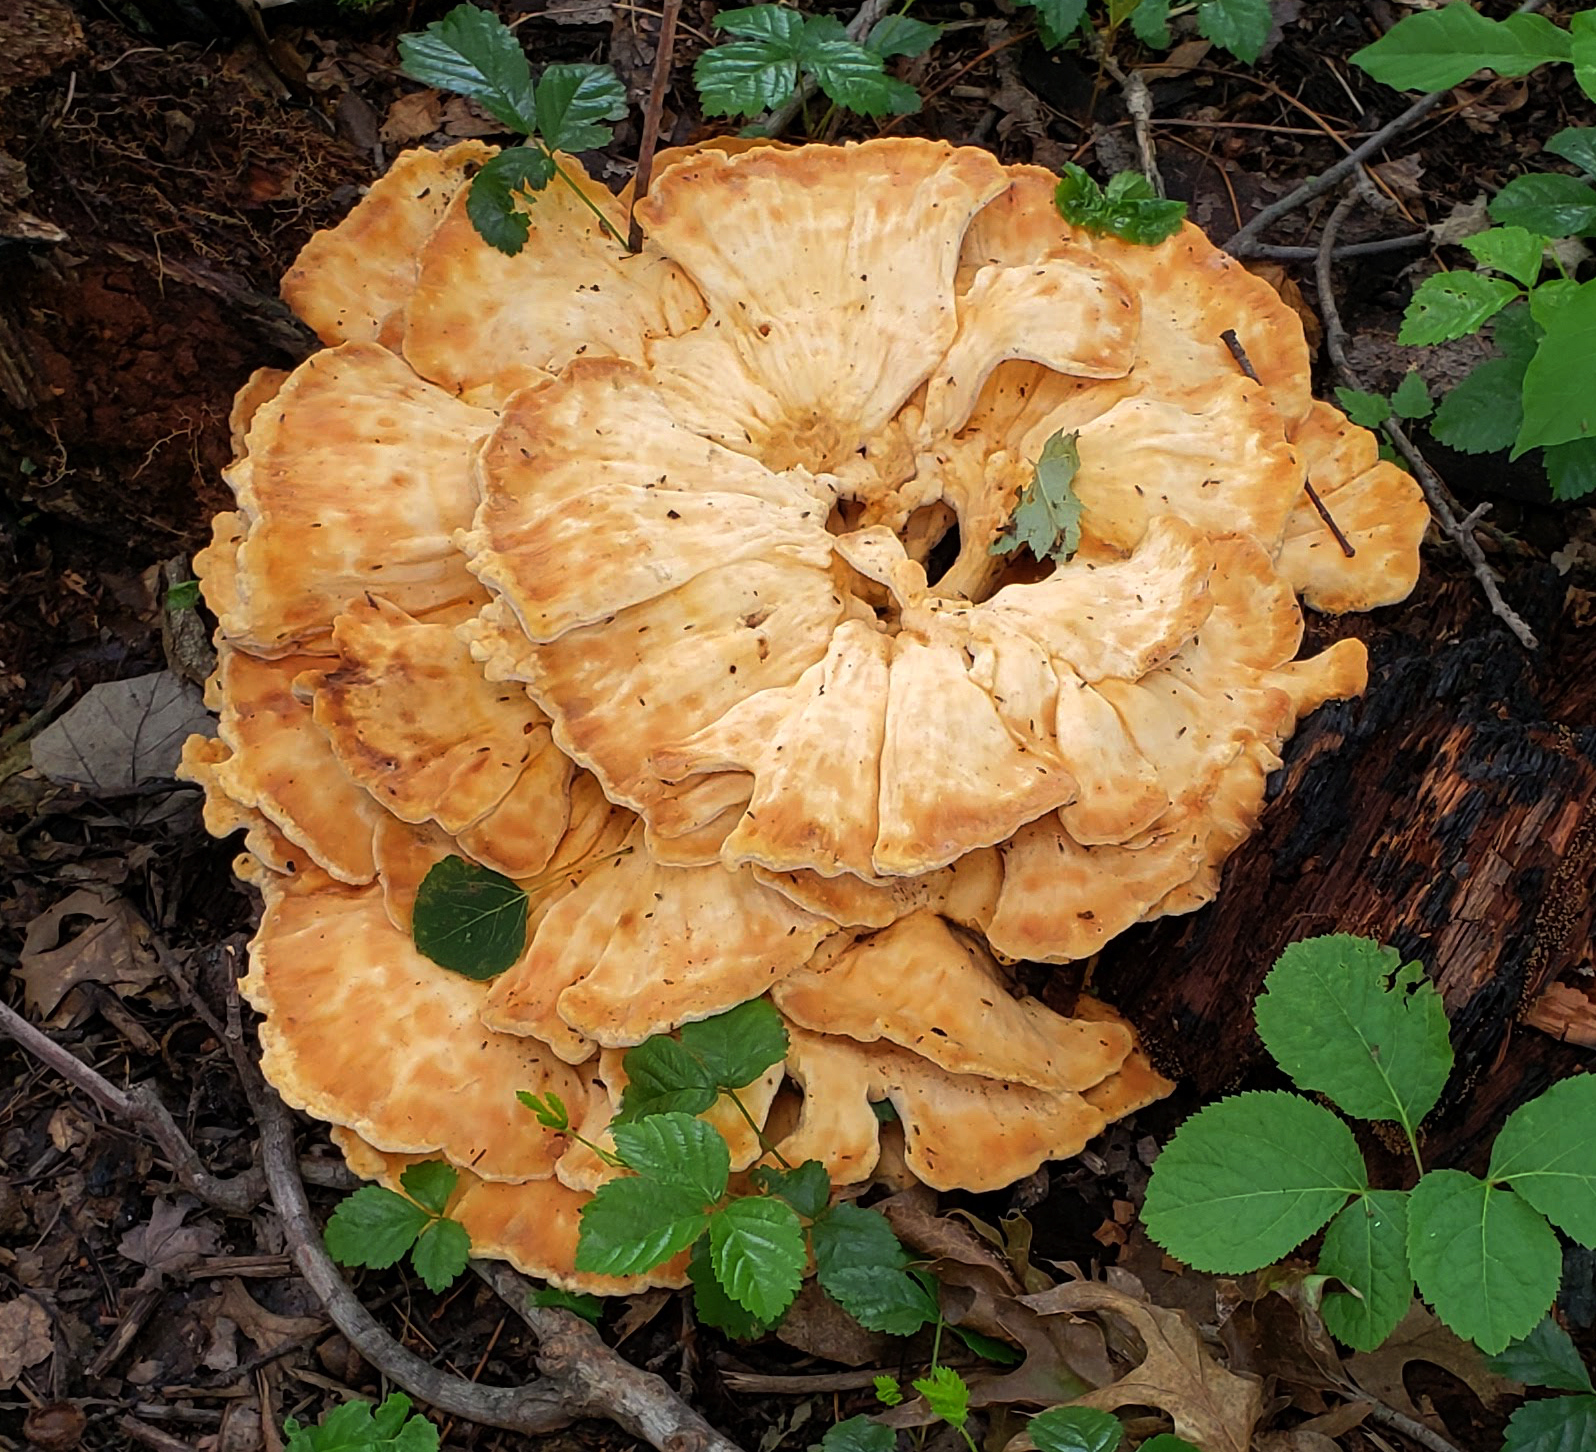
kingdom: Fungi
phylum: Basidiomycota
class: Agaricomycetes
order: Polyporales
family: Laetiporaceae
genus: Laetiporus
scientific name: Laetiporus sulphureus
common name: Chicken of the woods
